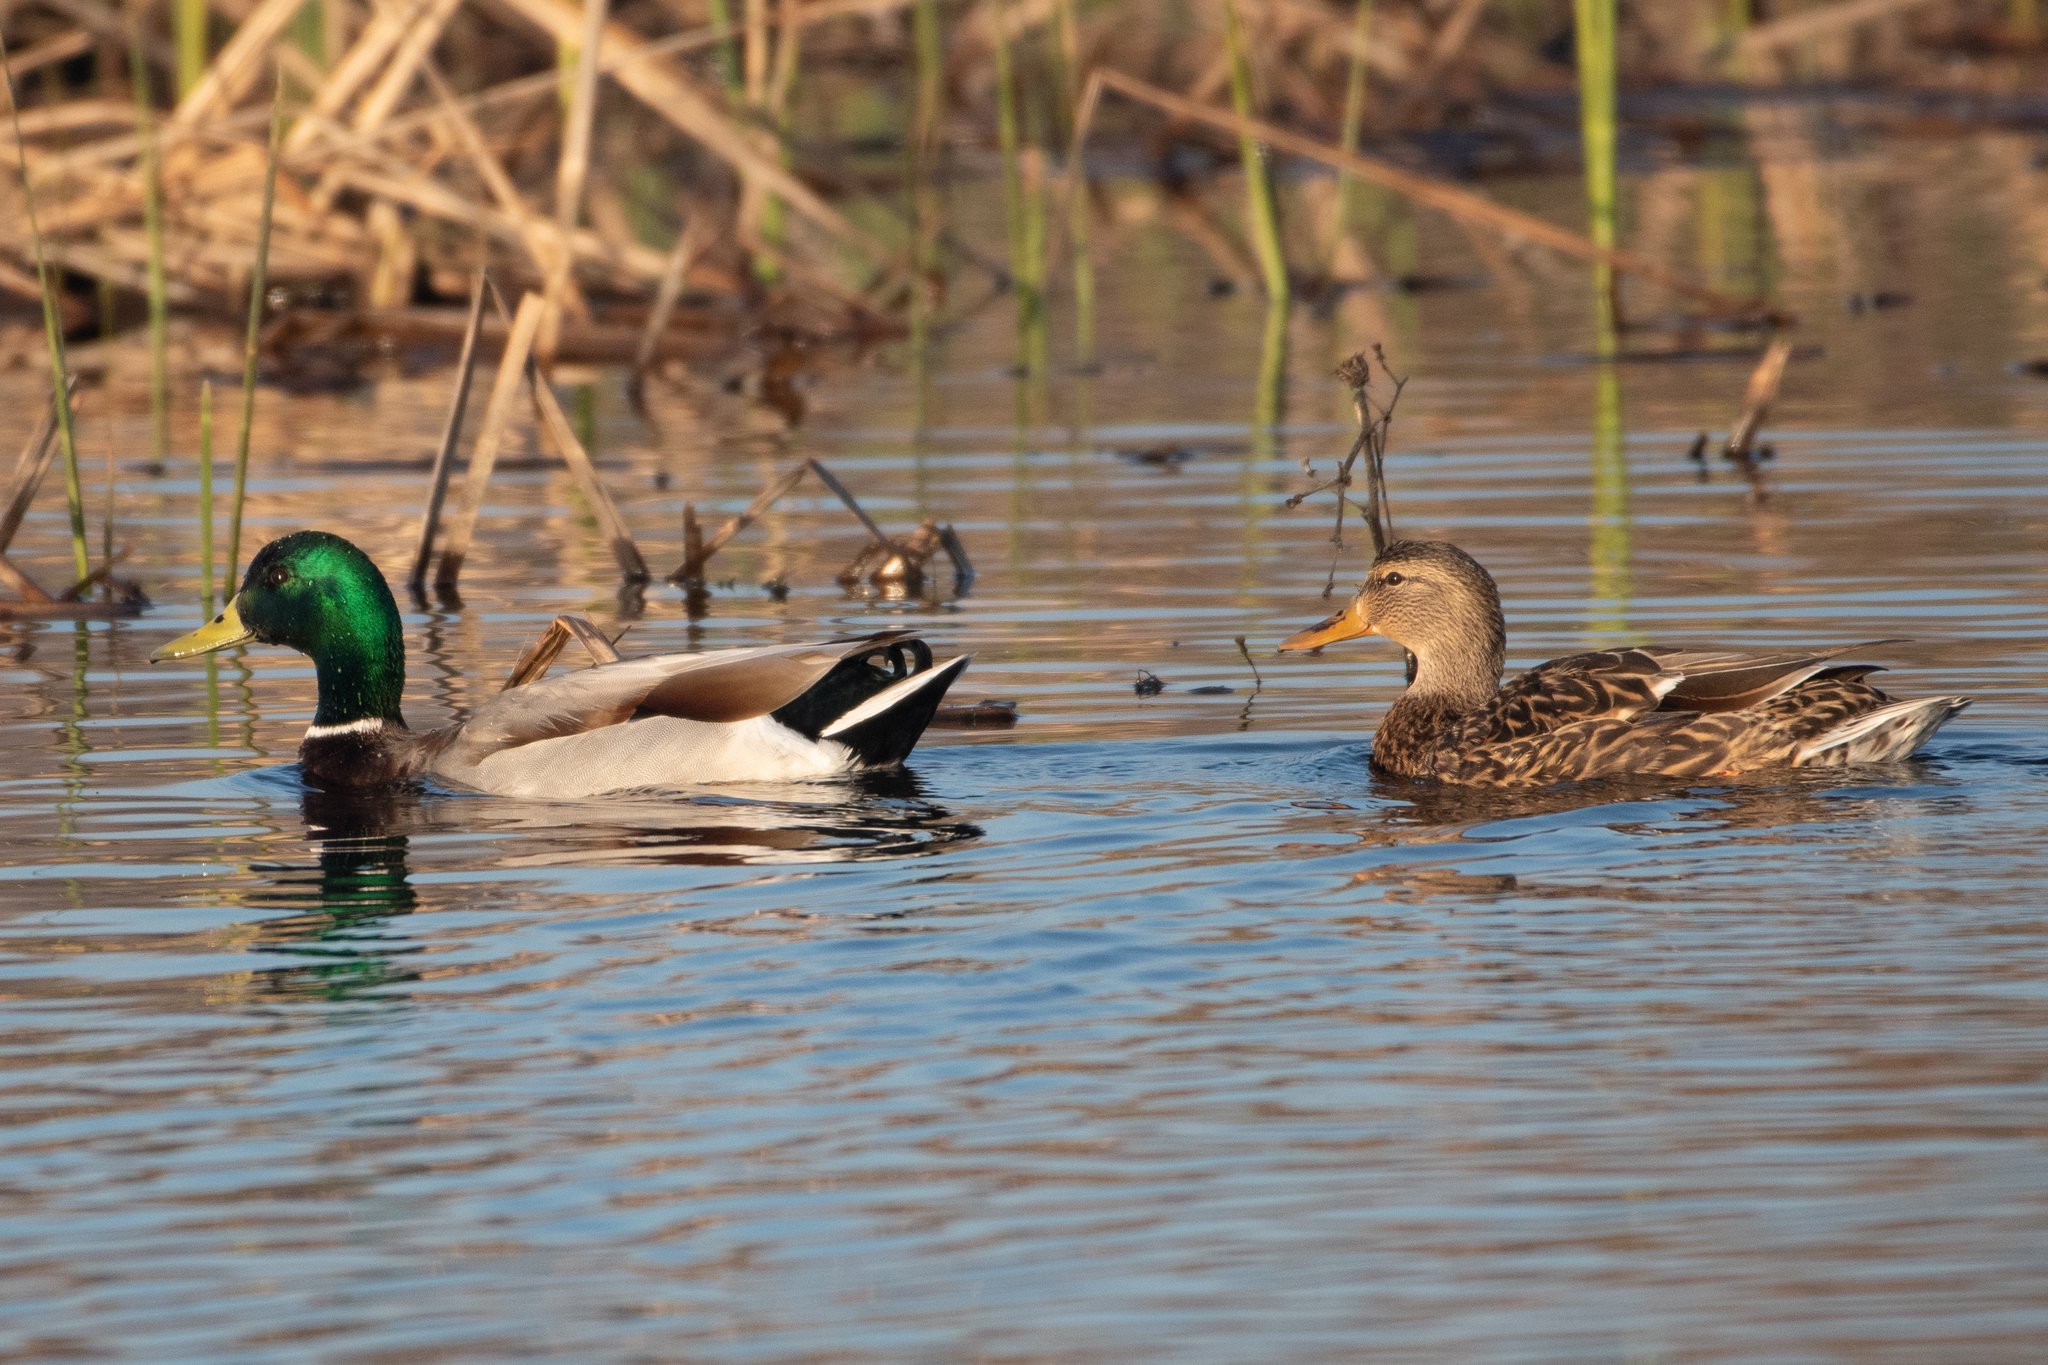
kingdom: Animalia
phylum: Chordata
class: Aves
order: Anseriformes
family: Anatidae
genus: Anas
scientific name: Anas platyrhynchos
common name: Mallard
